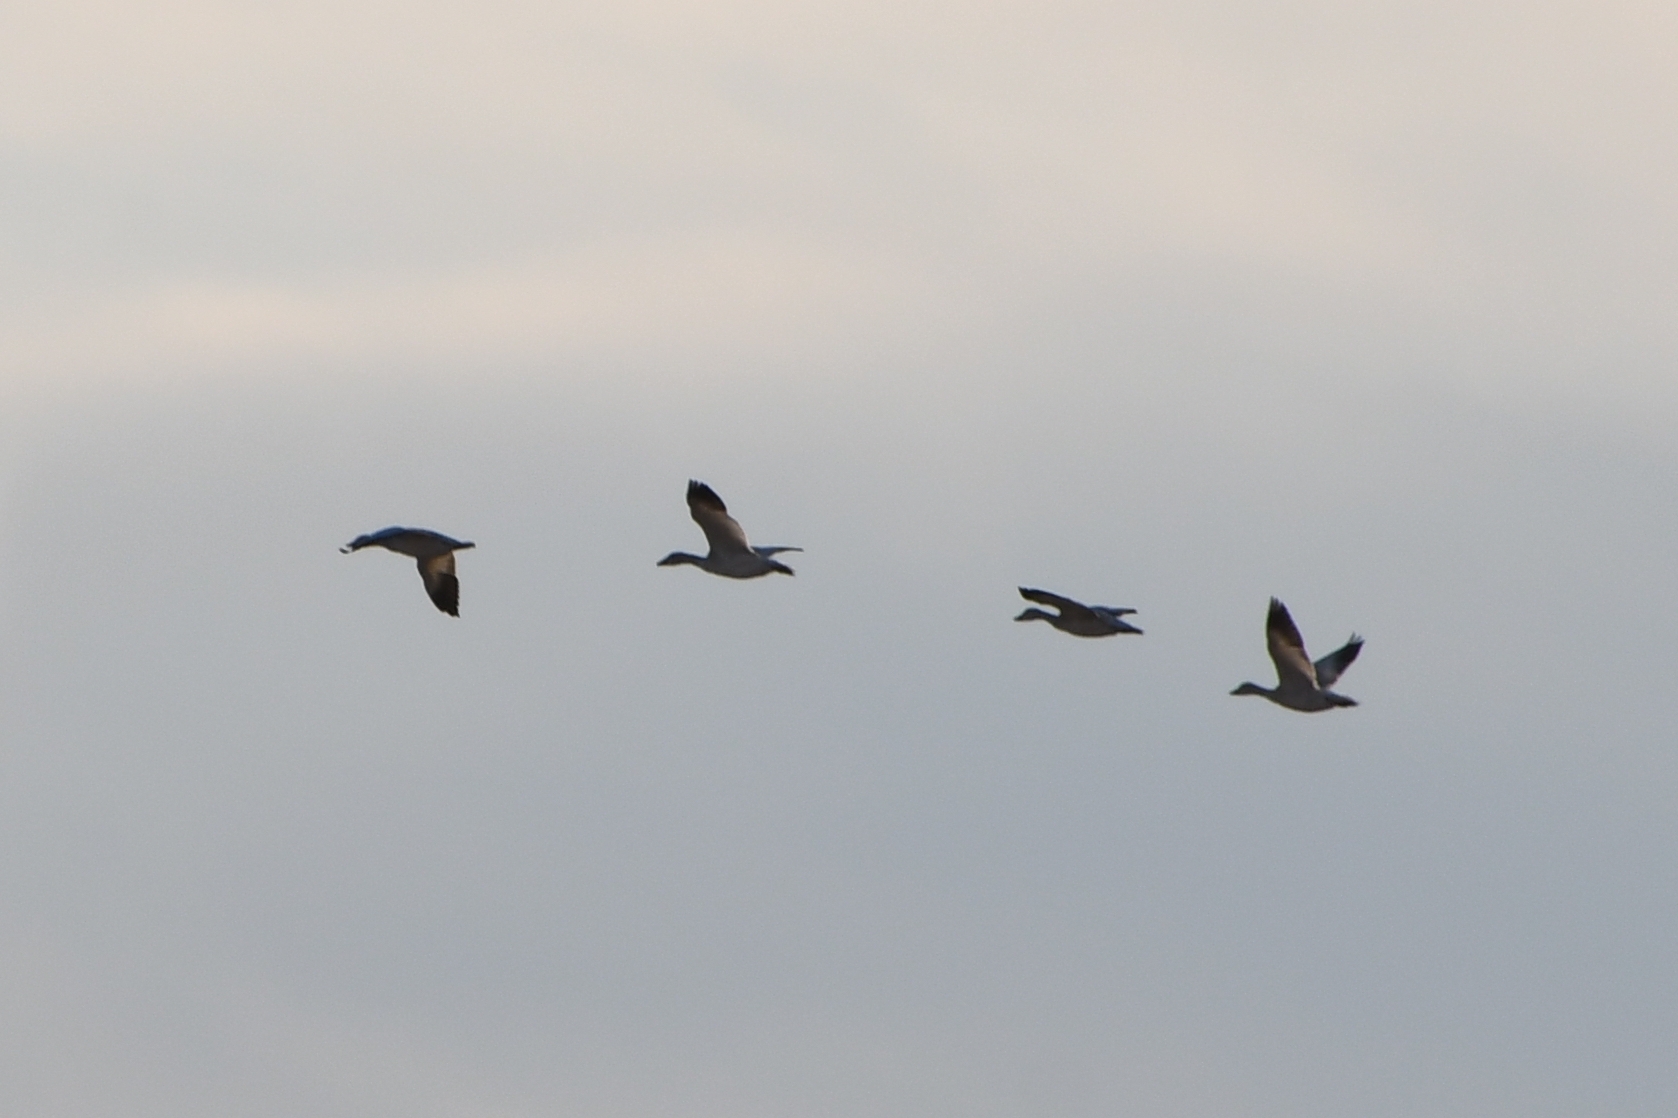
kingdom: Animalia
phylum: Chordata
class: Aves
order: Anseriformes
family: Anatidae
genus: Anser
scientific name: Anser caerulescens
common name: Snow goose
